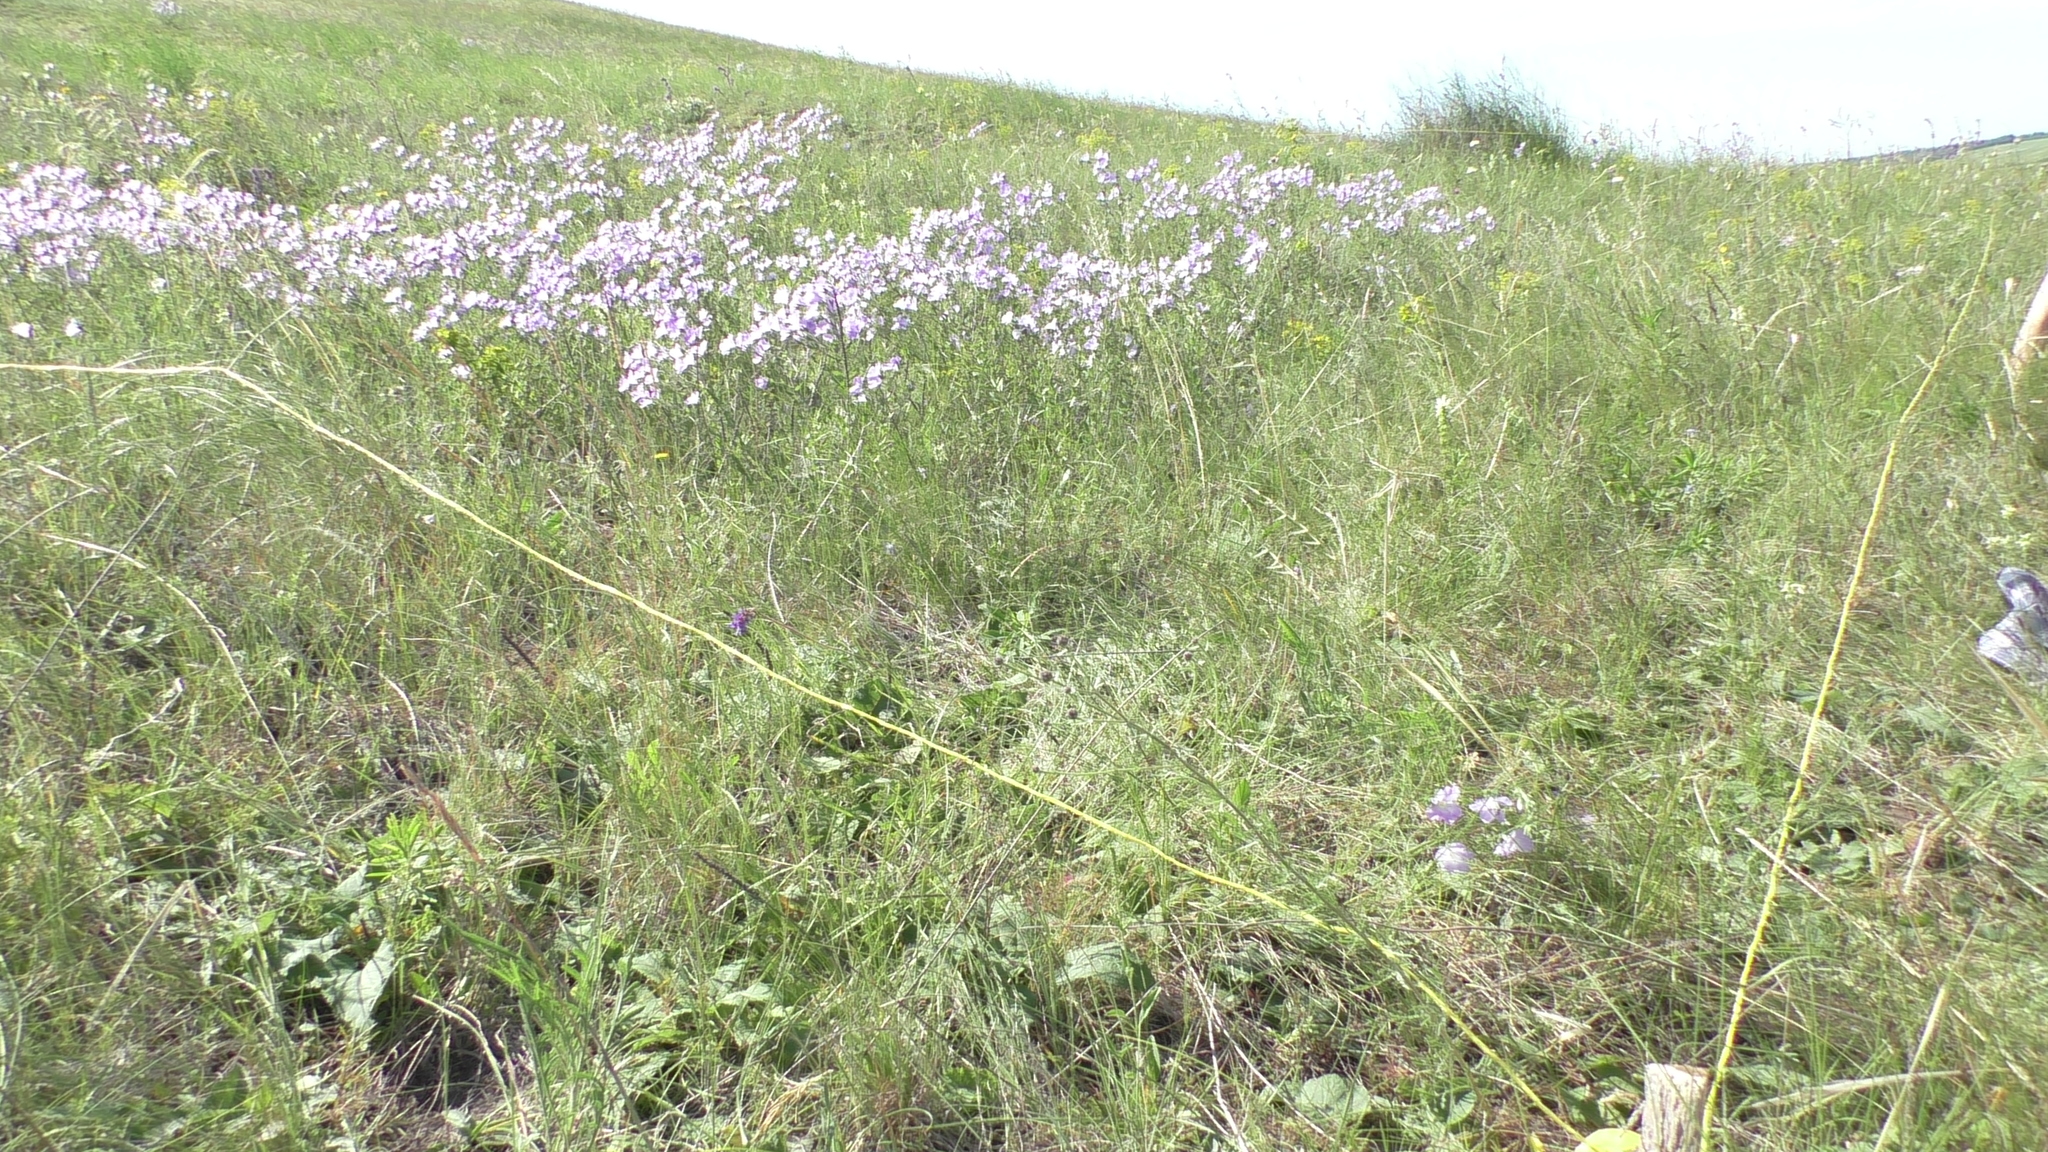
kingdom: Plantae
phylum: Tracheophyta
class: Magnoliopsida
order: Malpighiales
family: Linaceae
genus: Linum
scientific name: Linum hirsutum
